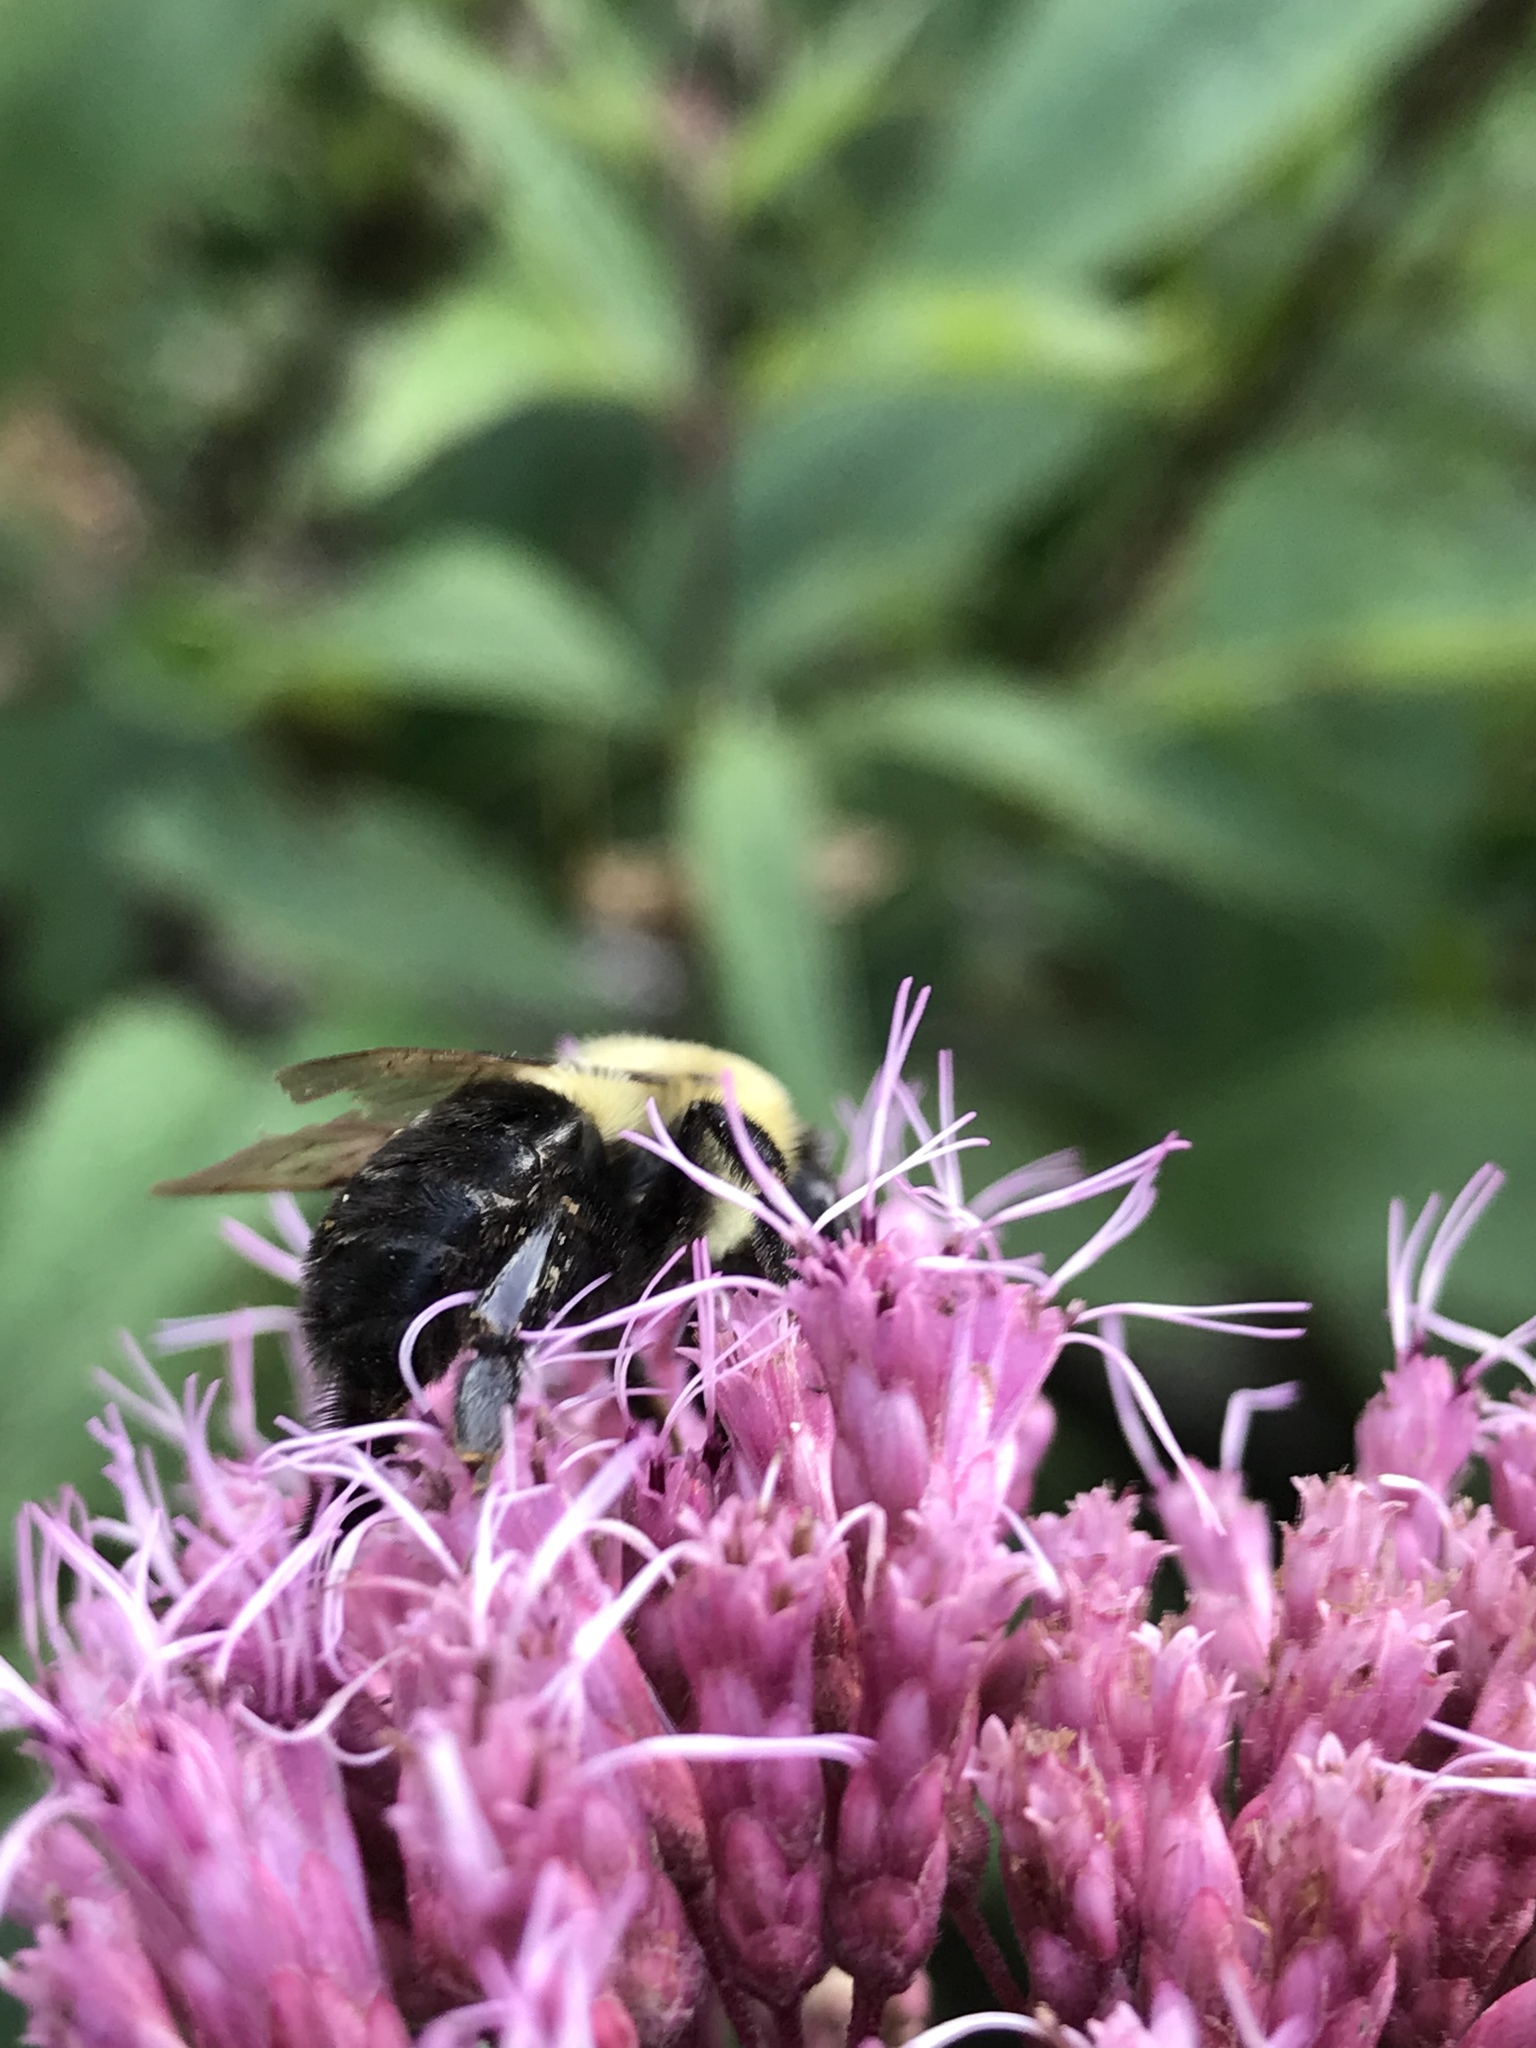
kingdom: Animalia
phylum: Arthropoda
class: Insecta
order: Hymenoptera
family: Apidae
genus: Bombus
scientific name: Bombus impatiens
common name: Common eastern bumble bee
